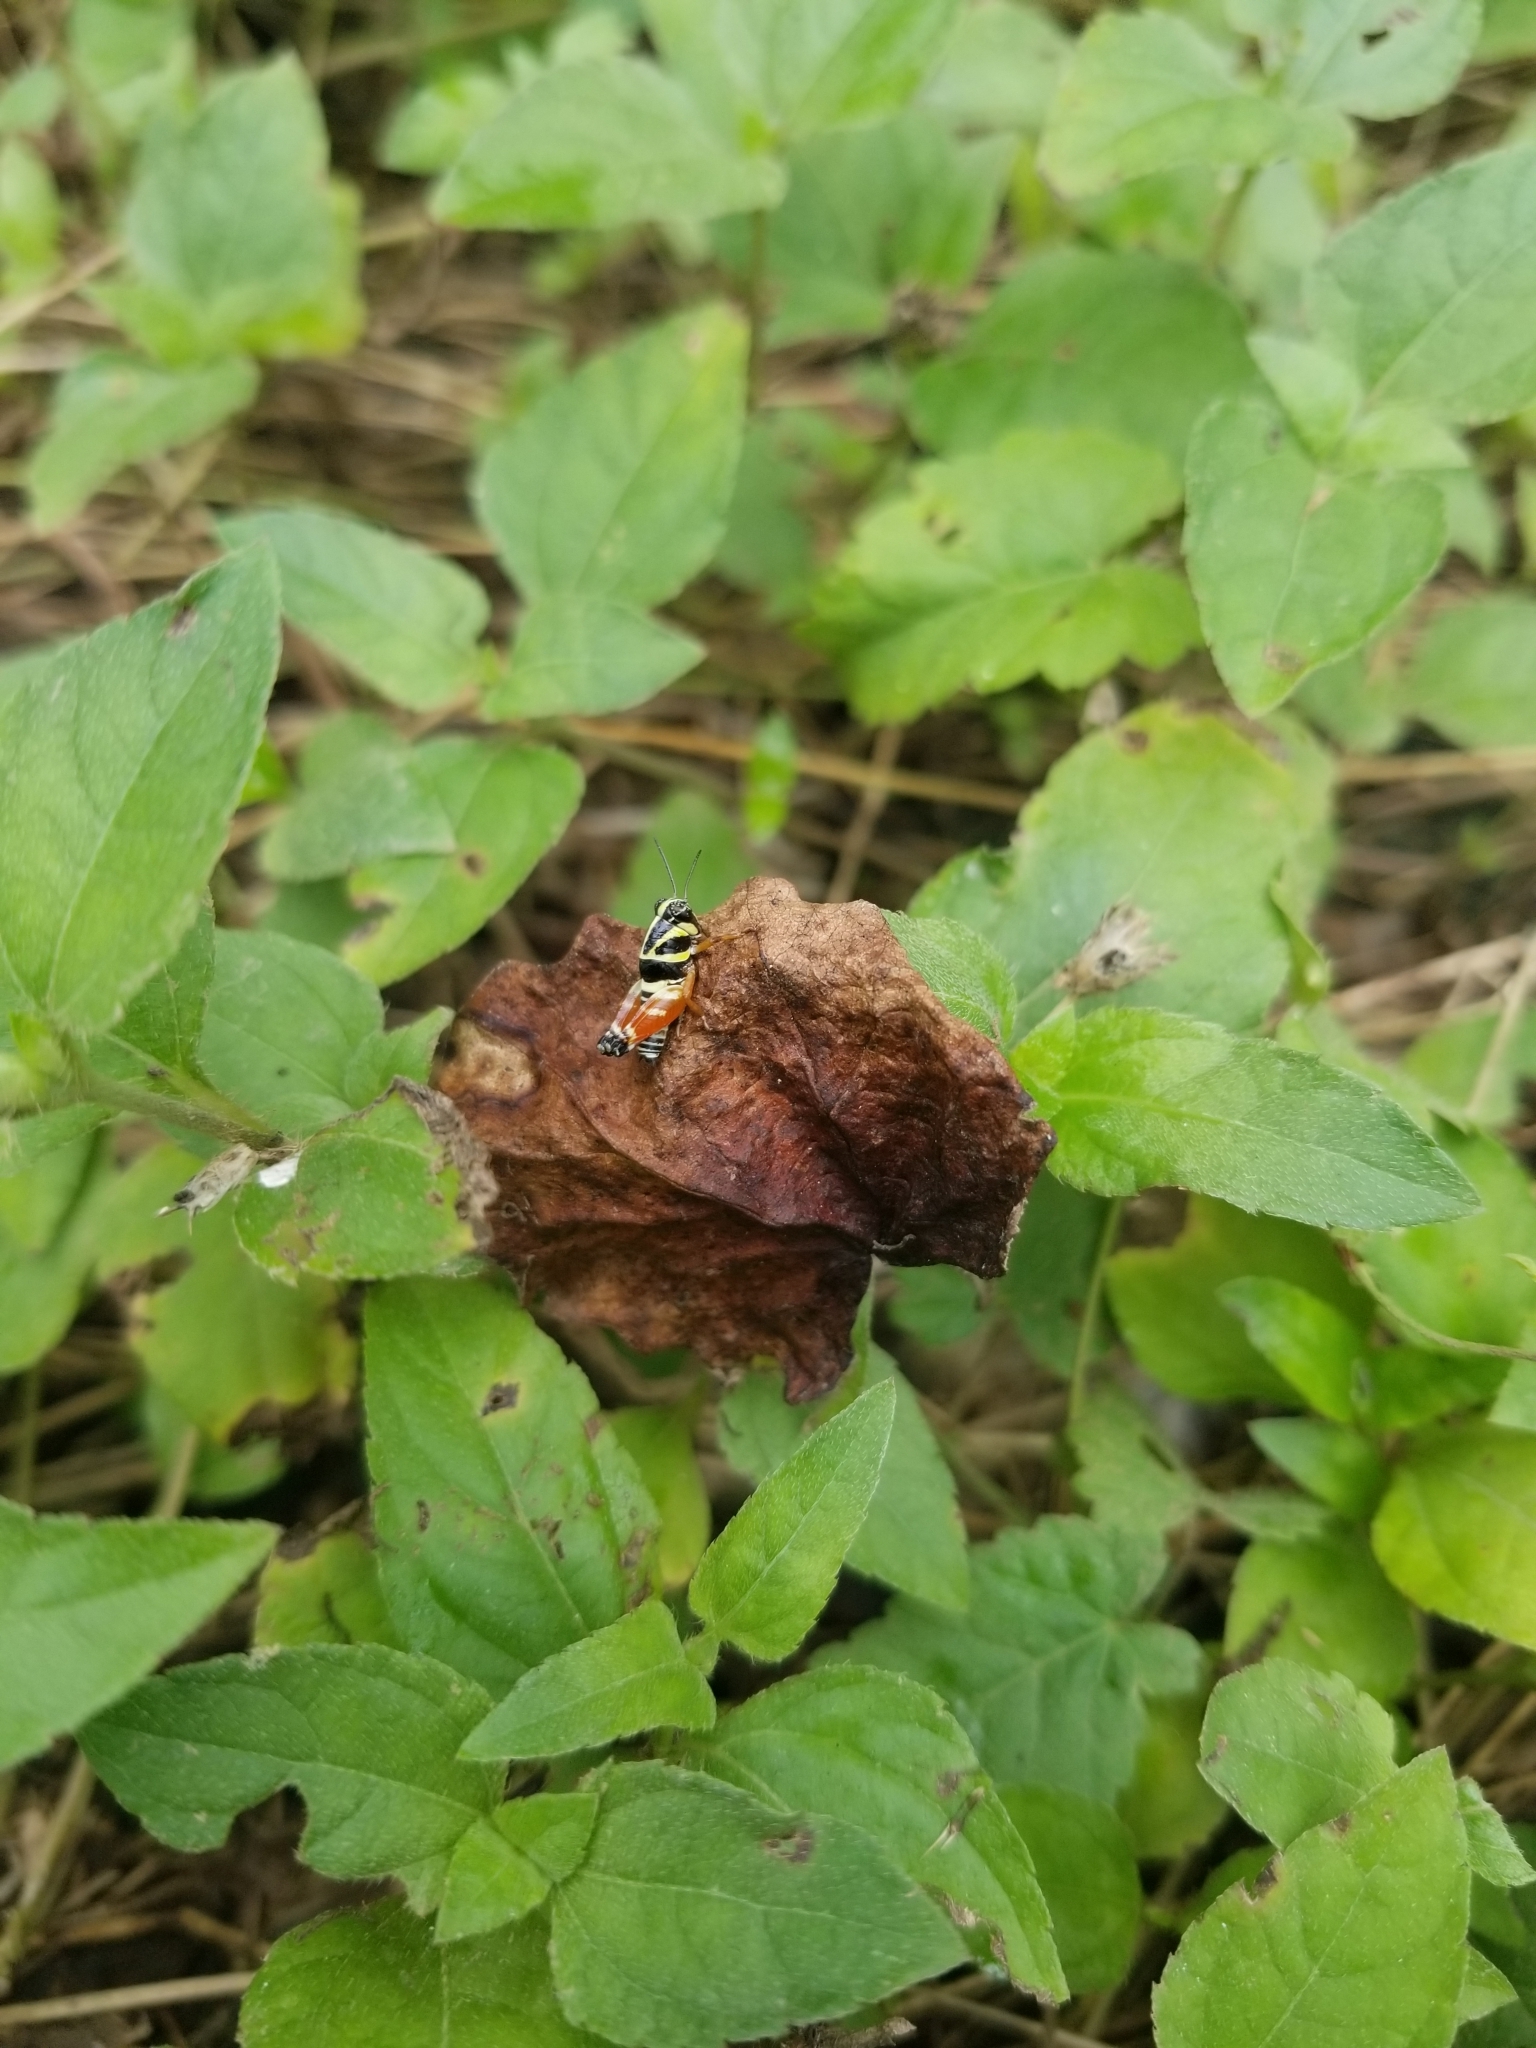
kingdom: Animalia
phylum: Arthropoda
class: Insecta
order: Orthoptera
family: Acrididae
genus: Aidemona
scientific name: Aidemona azteca
